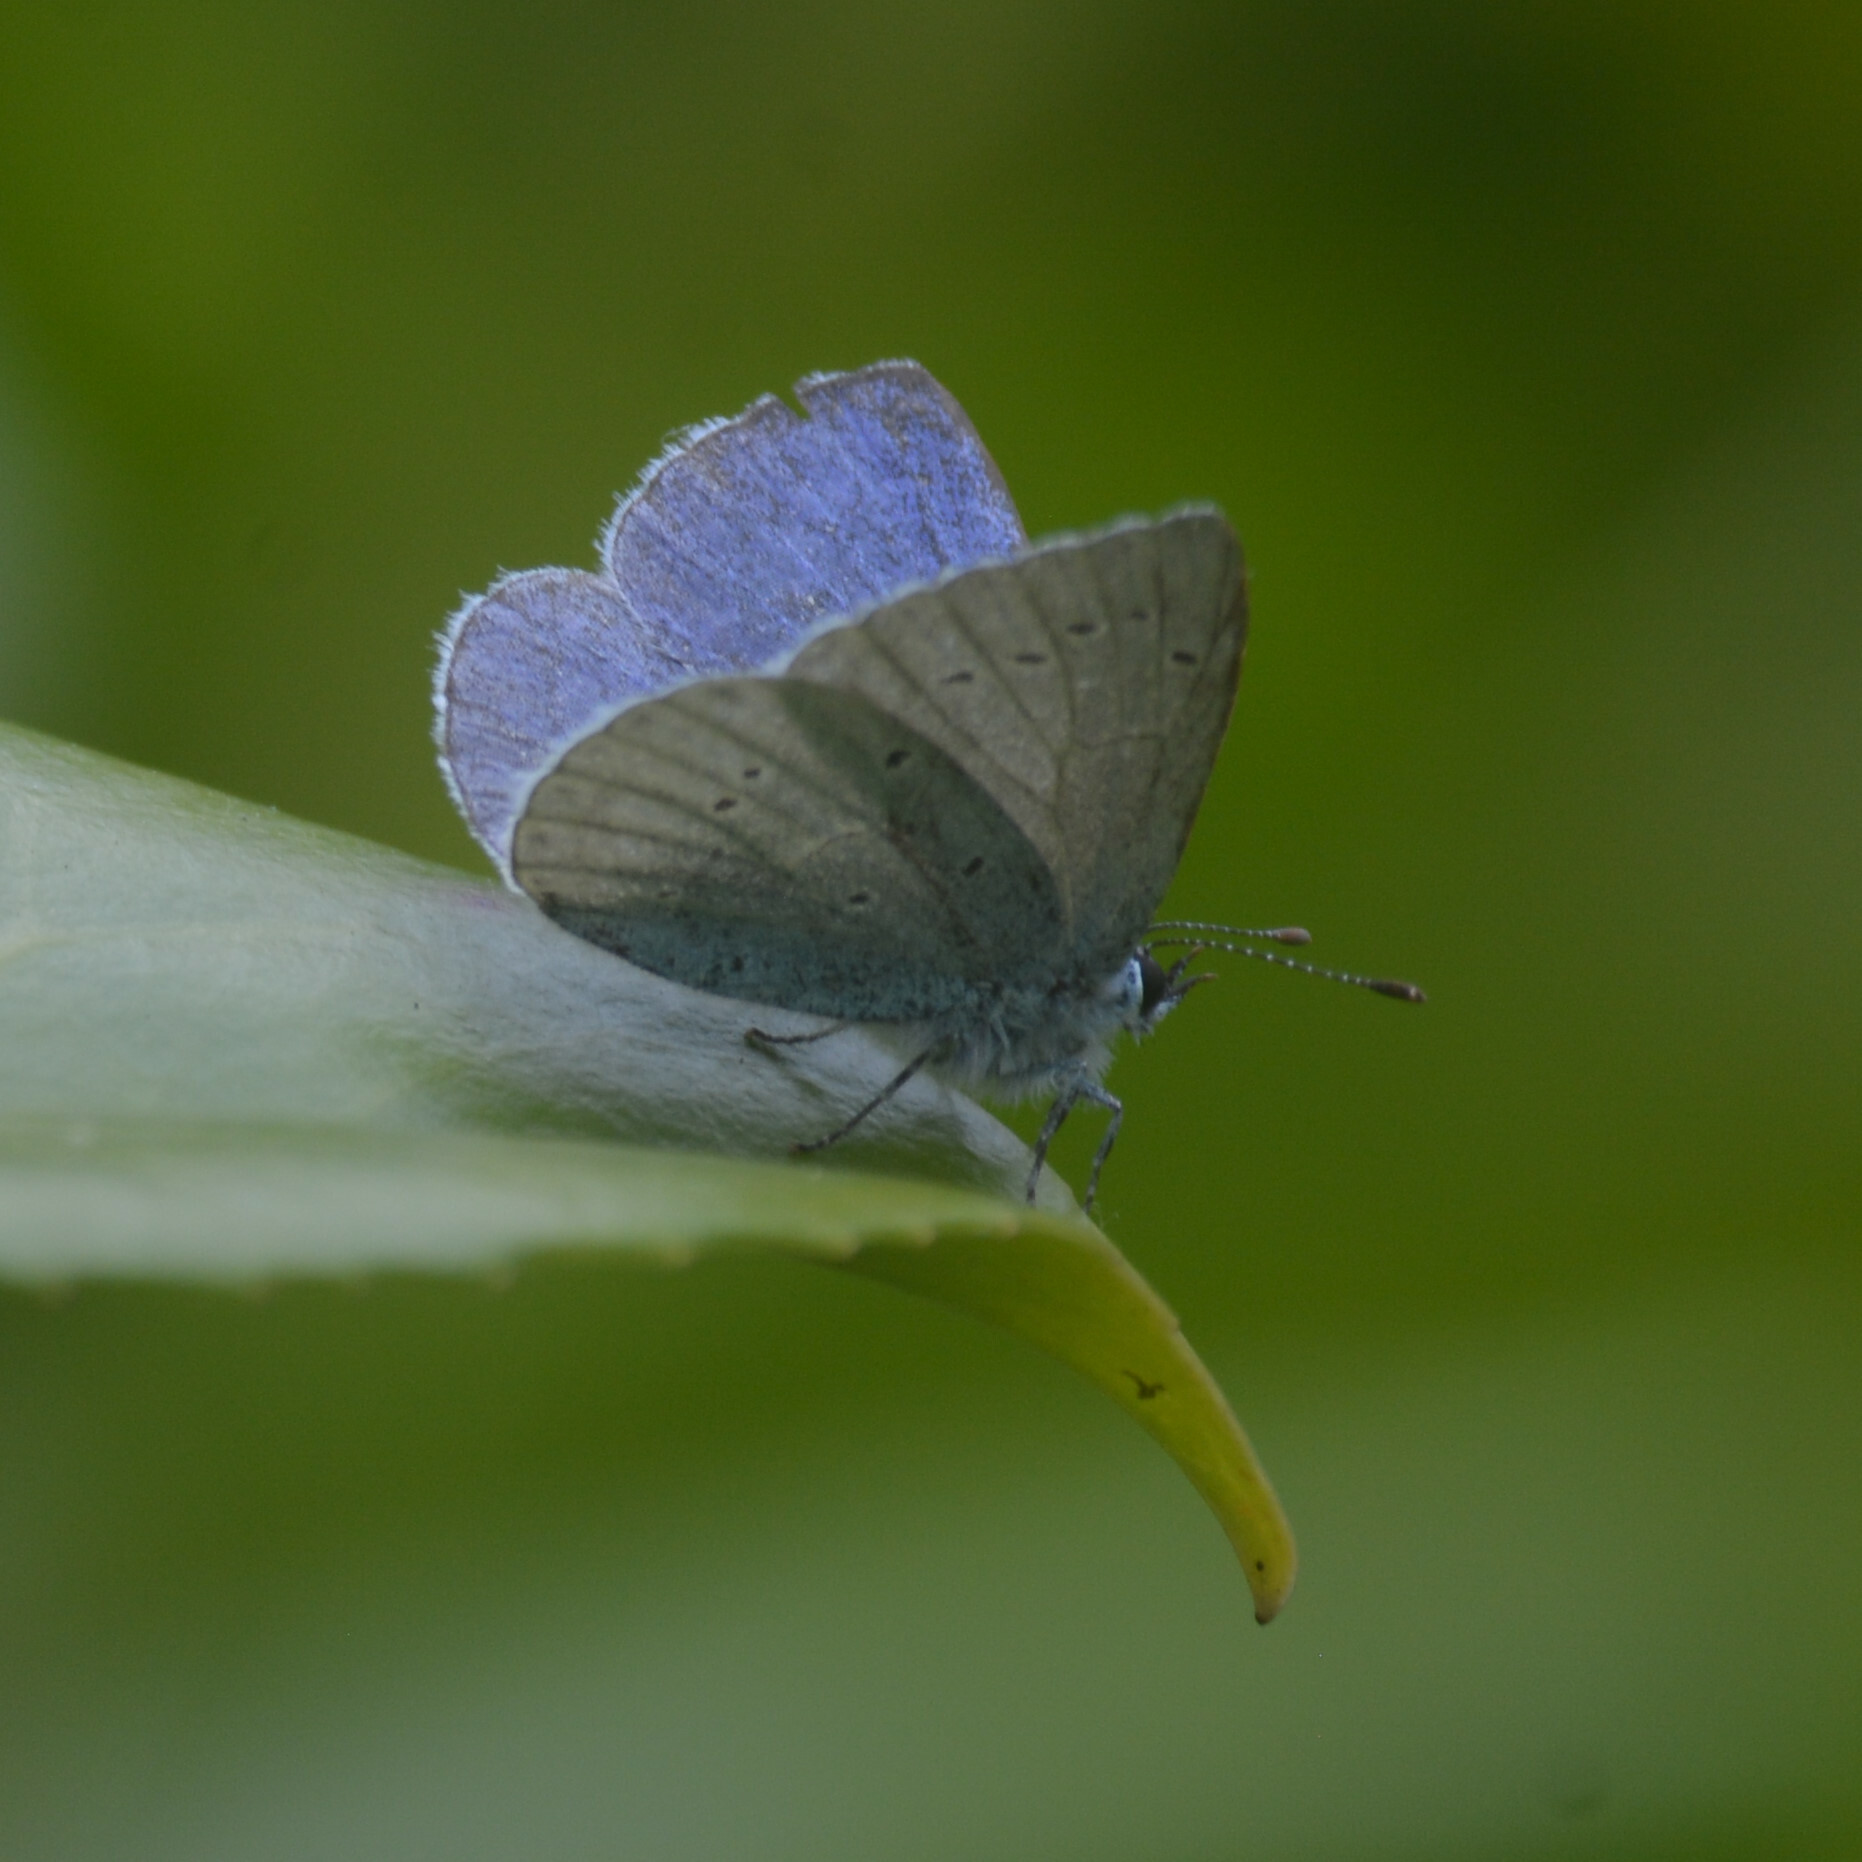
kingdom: Animalia
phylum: Arthropoda
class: Insecta
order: Lepidoptera
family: Lycaenidae
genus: Celastrina
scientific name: Celastrina argiolus
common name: Holly blue
